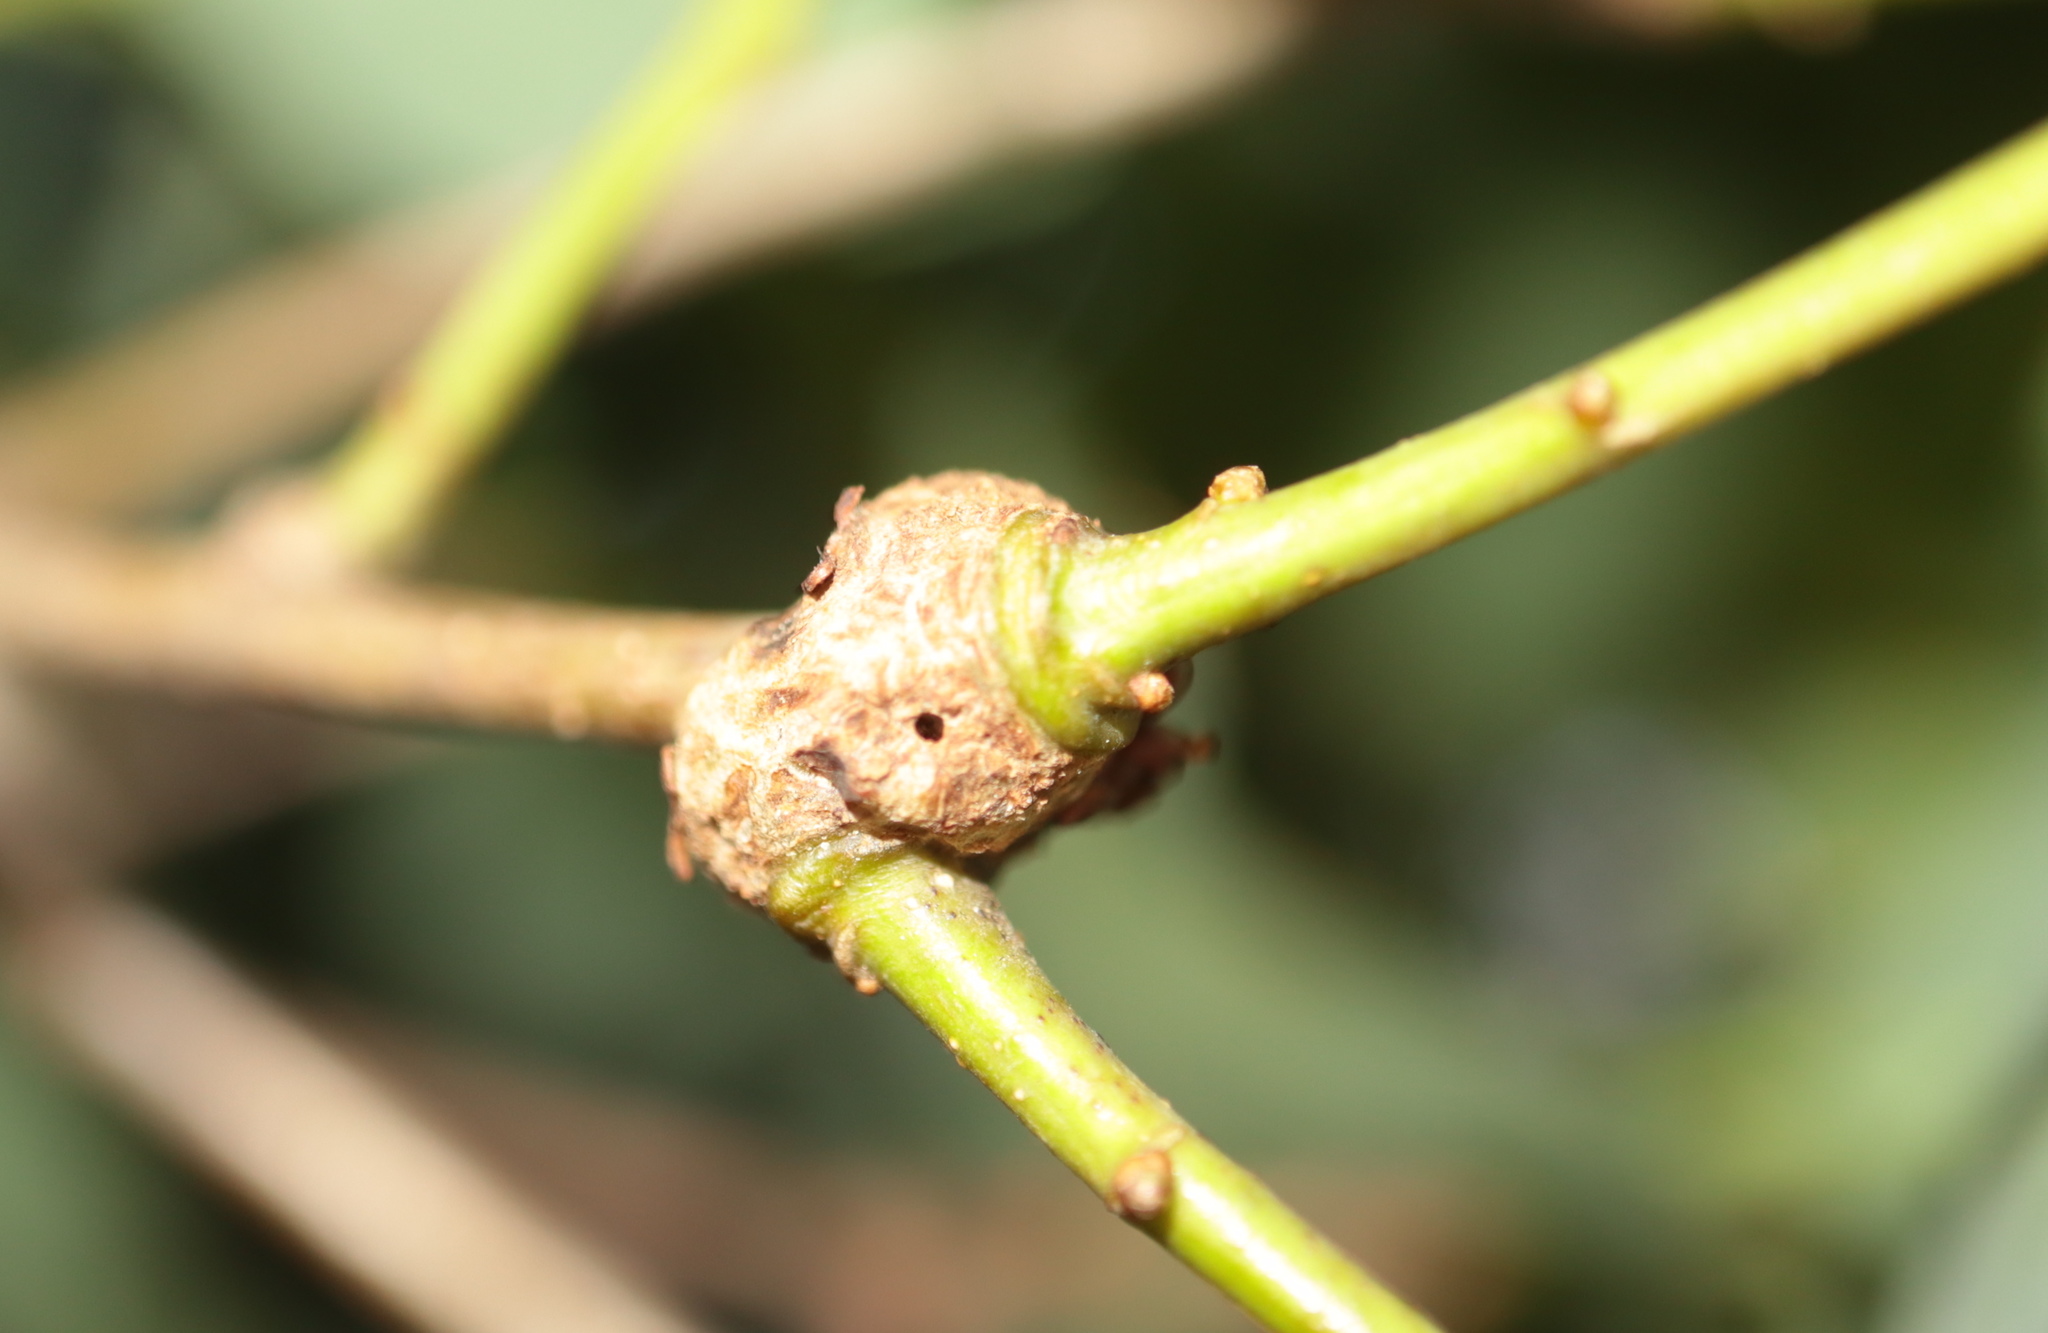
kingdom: Animalia
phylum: Arthropoda
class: Insecta
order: Hymenoptera
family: Cynipidae
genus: Loxaulus
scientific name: Loxaulus
